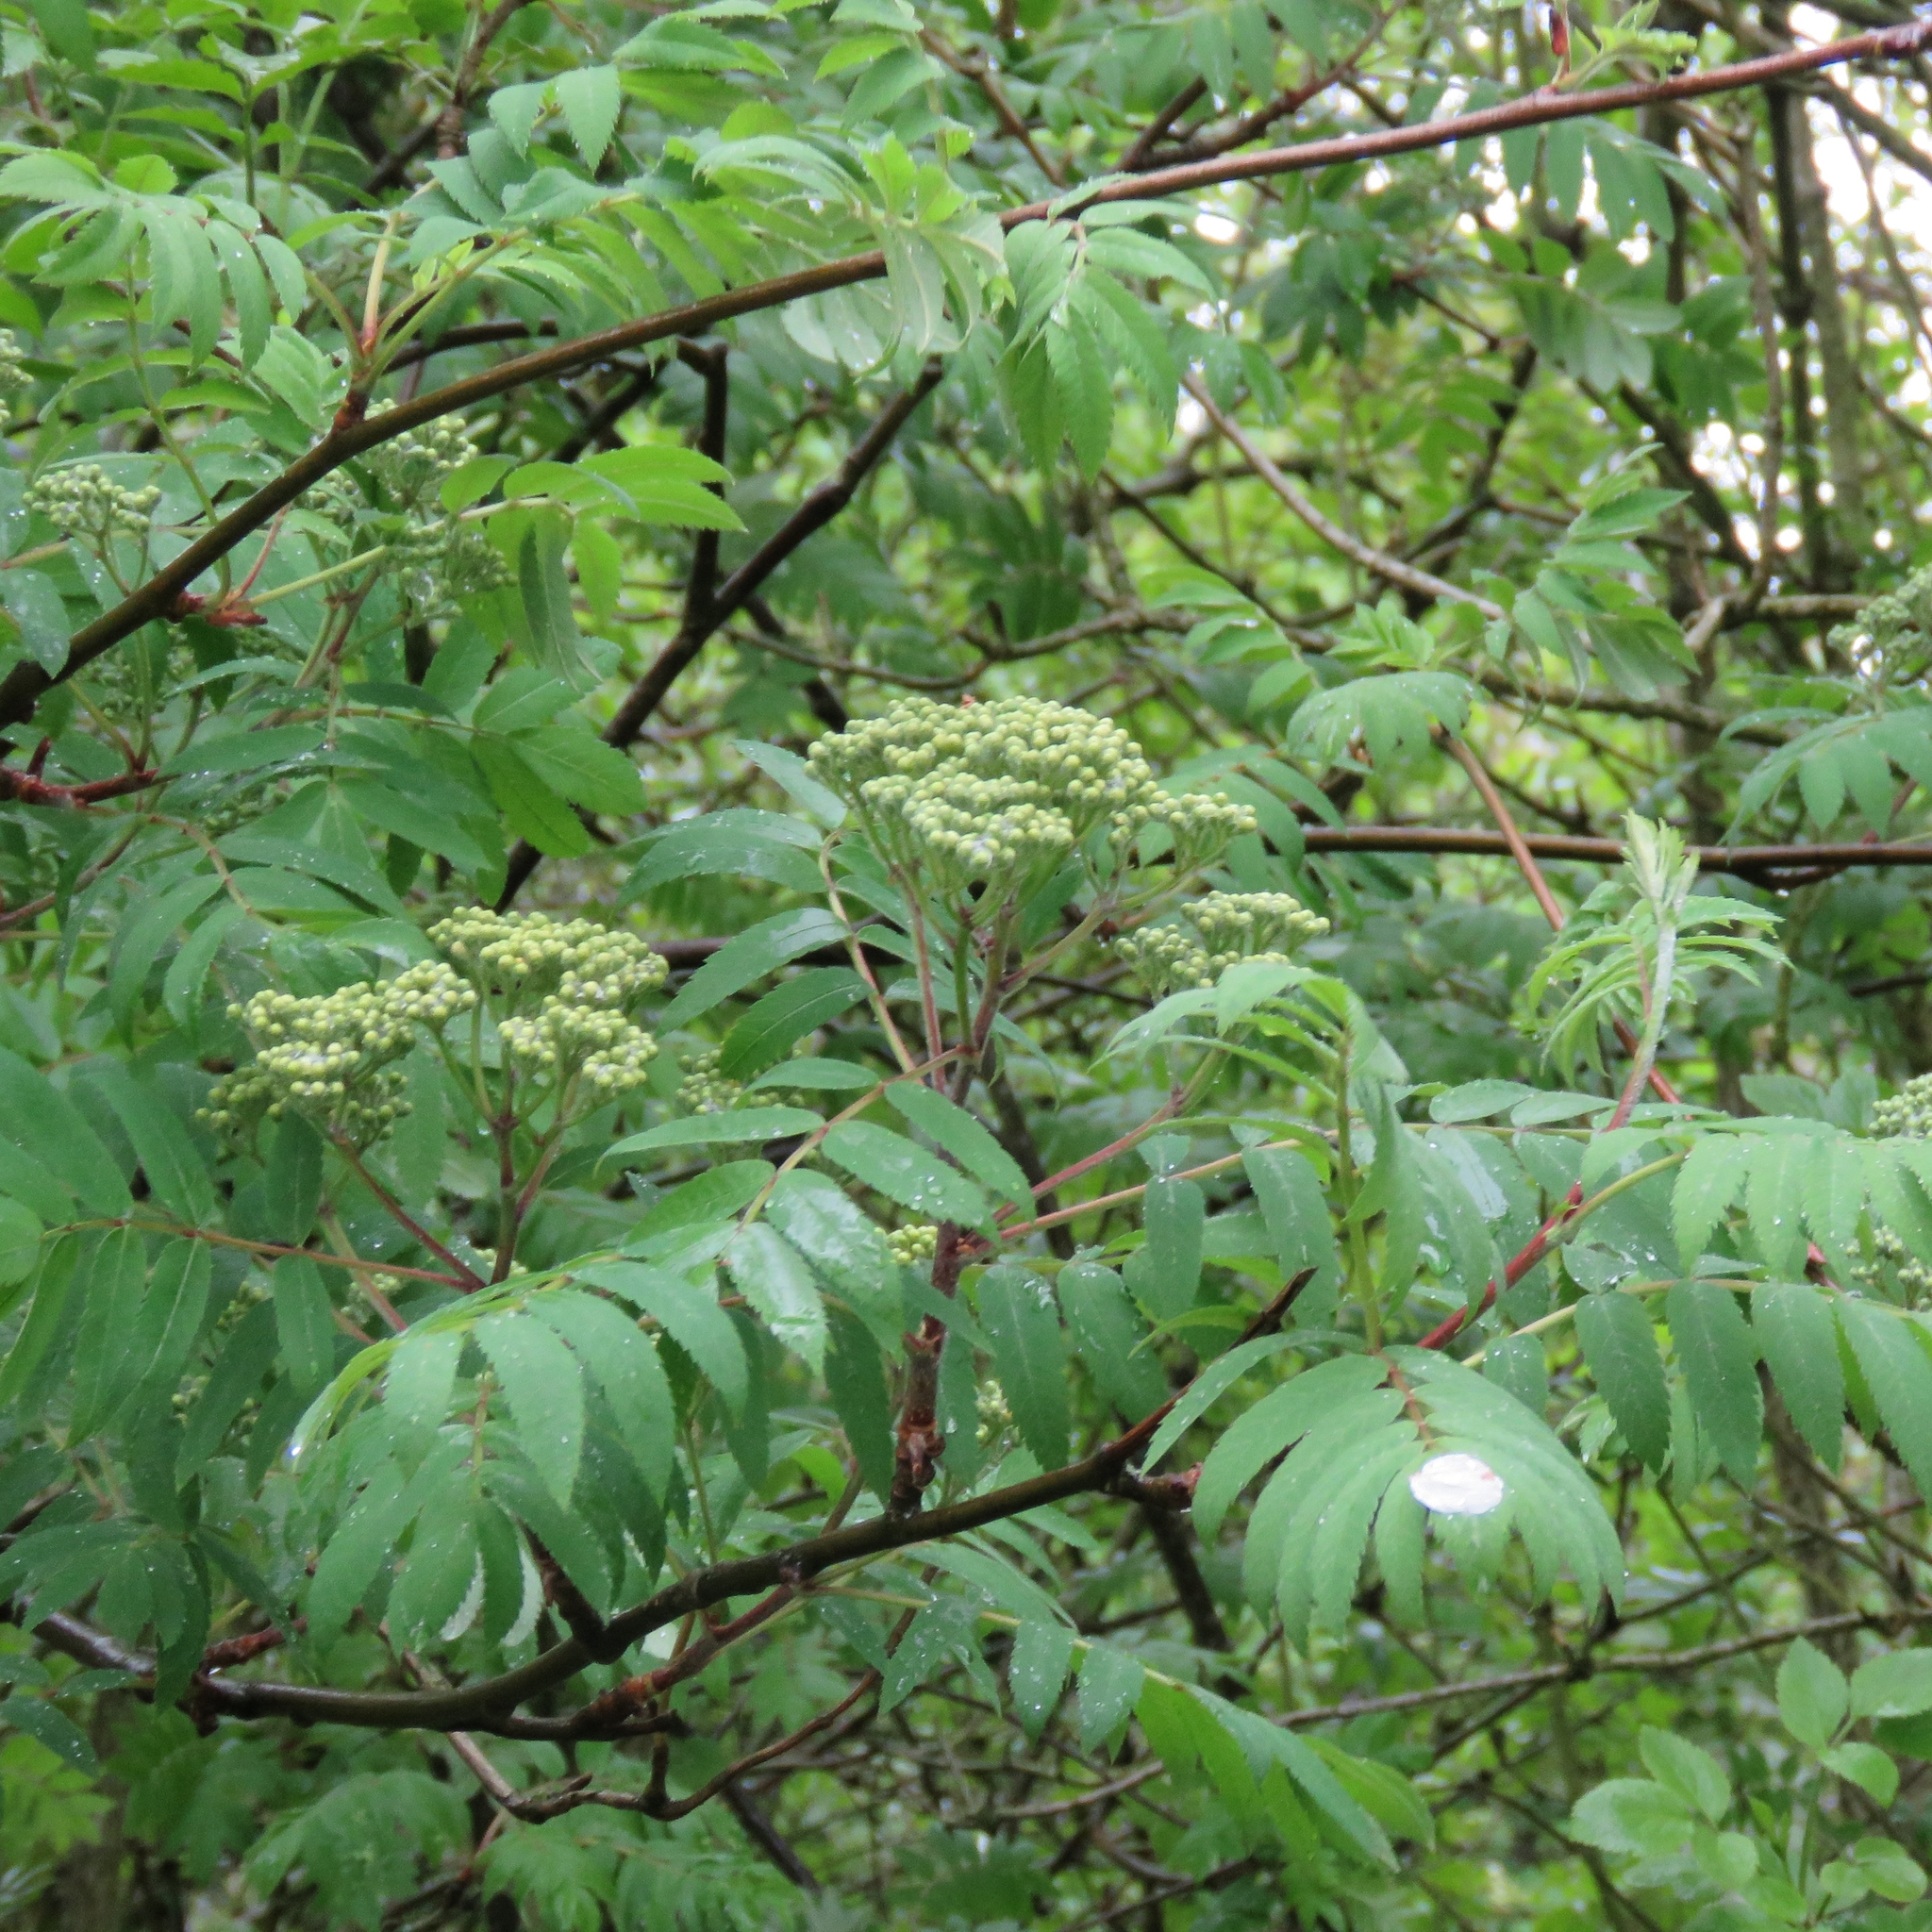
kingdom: Plantae
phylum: Tracheophyta
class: Magnoliopsida
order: Rosales
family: Rosaceae
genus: Sorbus
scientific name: Sorbus aucuparia
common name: Rowan
